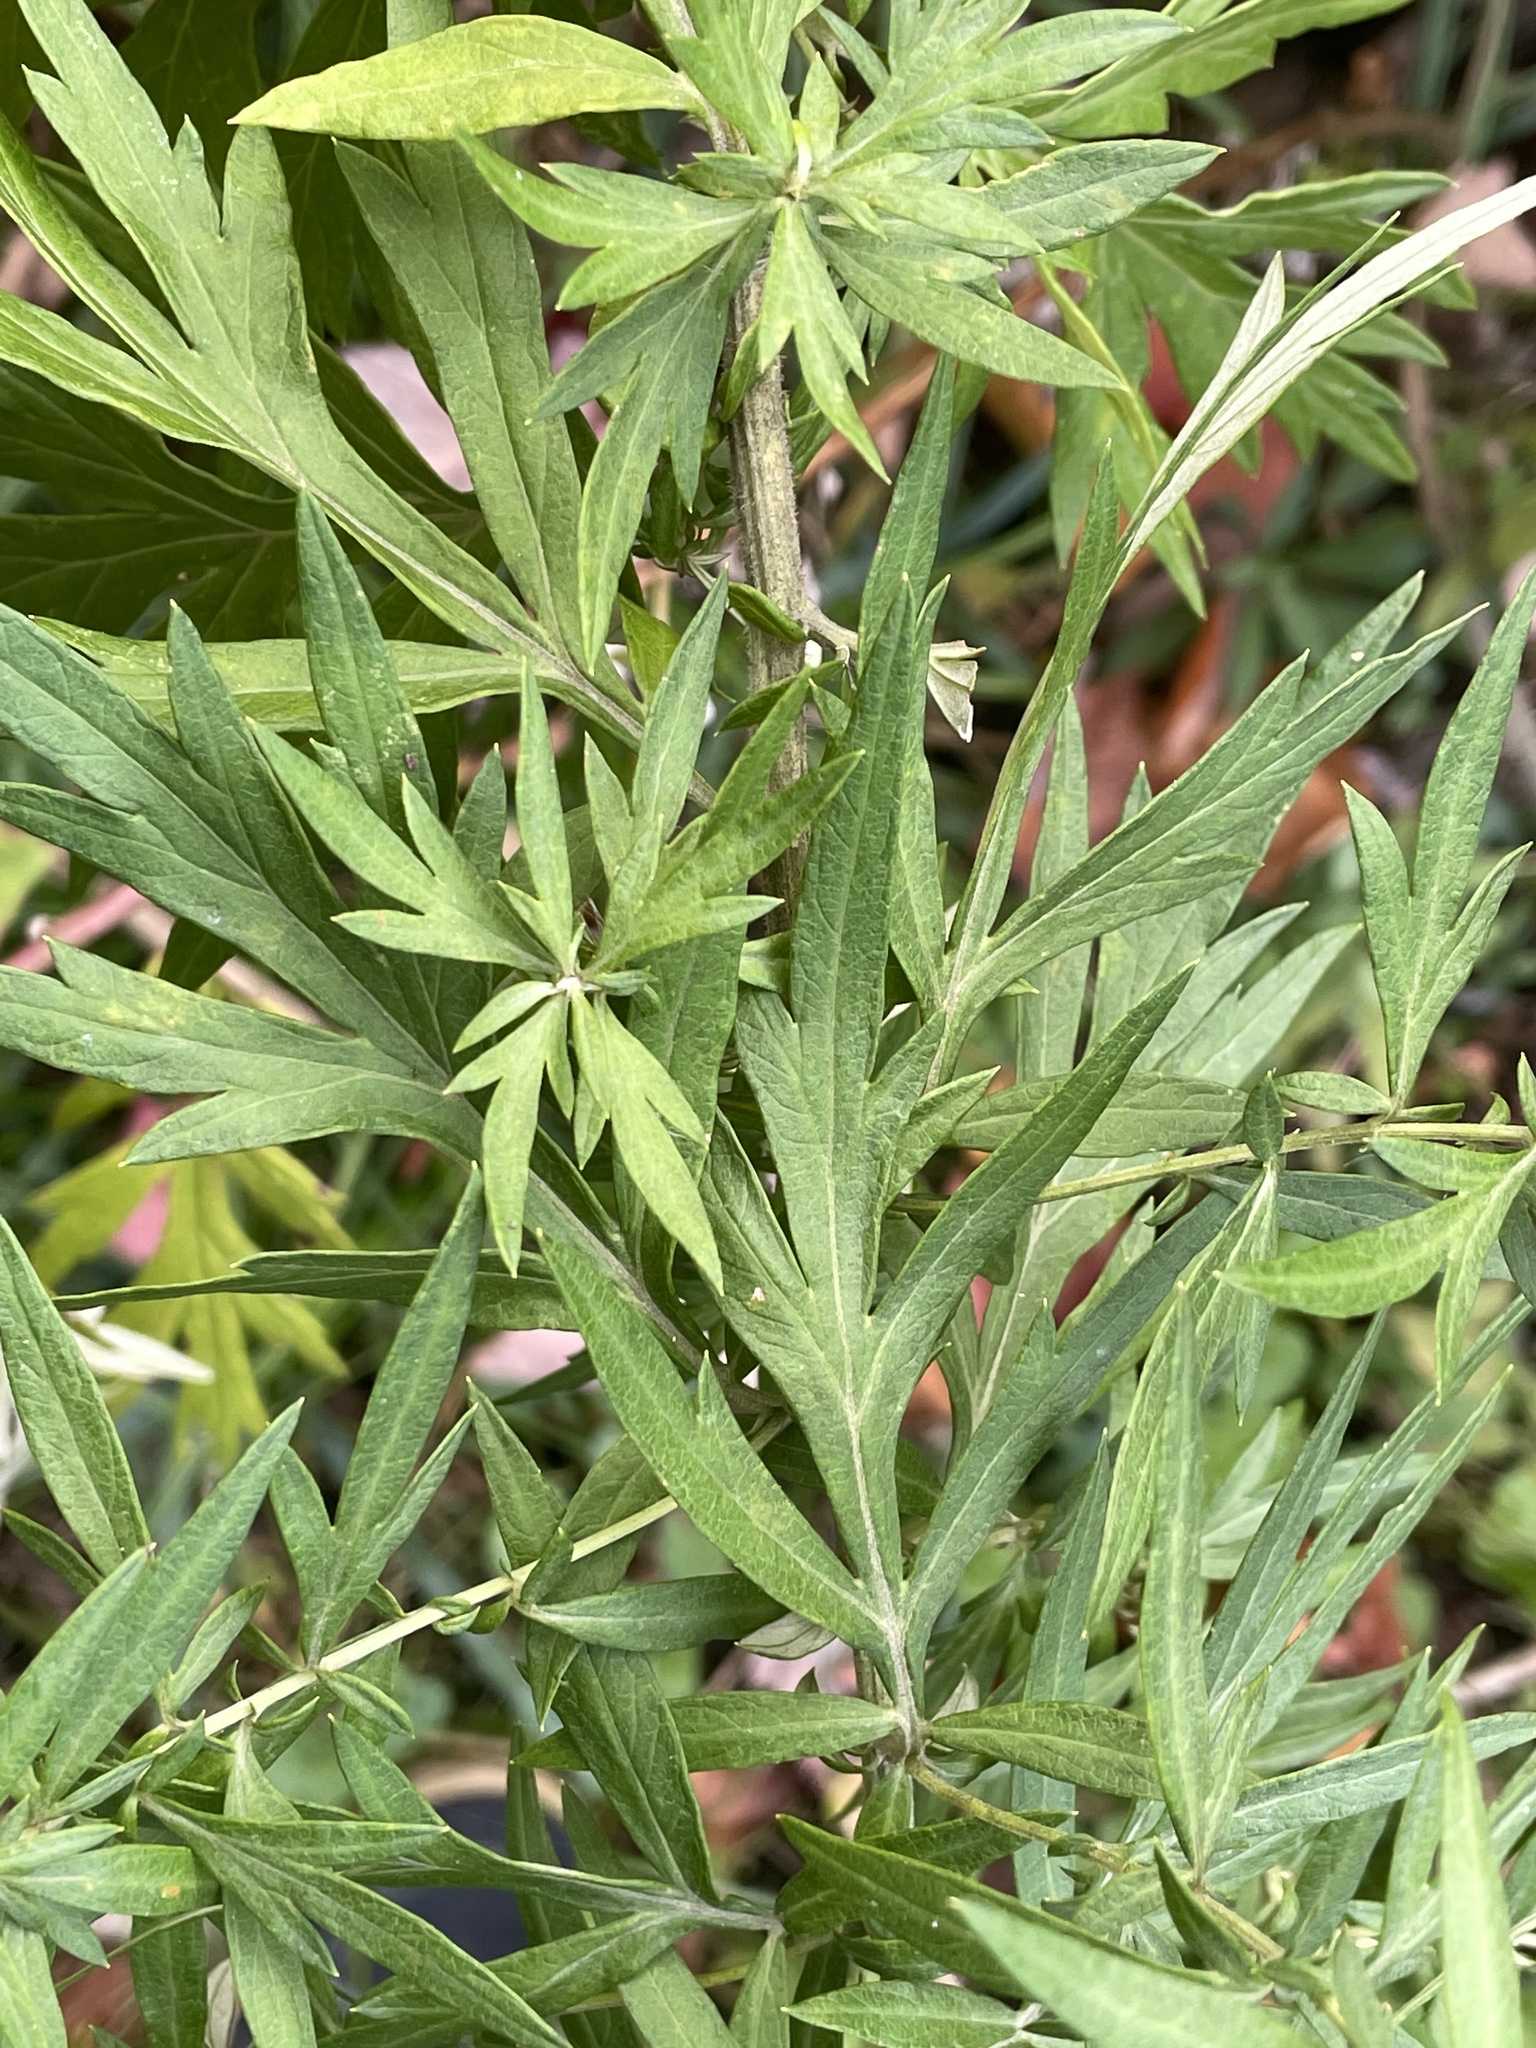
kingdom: Plantae
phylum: Tracheophyta
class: Magnoliopsida
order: Asterales
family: Asteraceae
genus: Artemisia
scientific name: Artemisia vulgaris
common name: Mugwort
